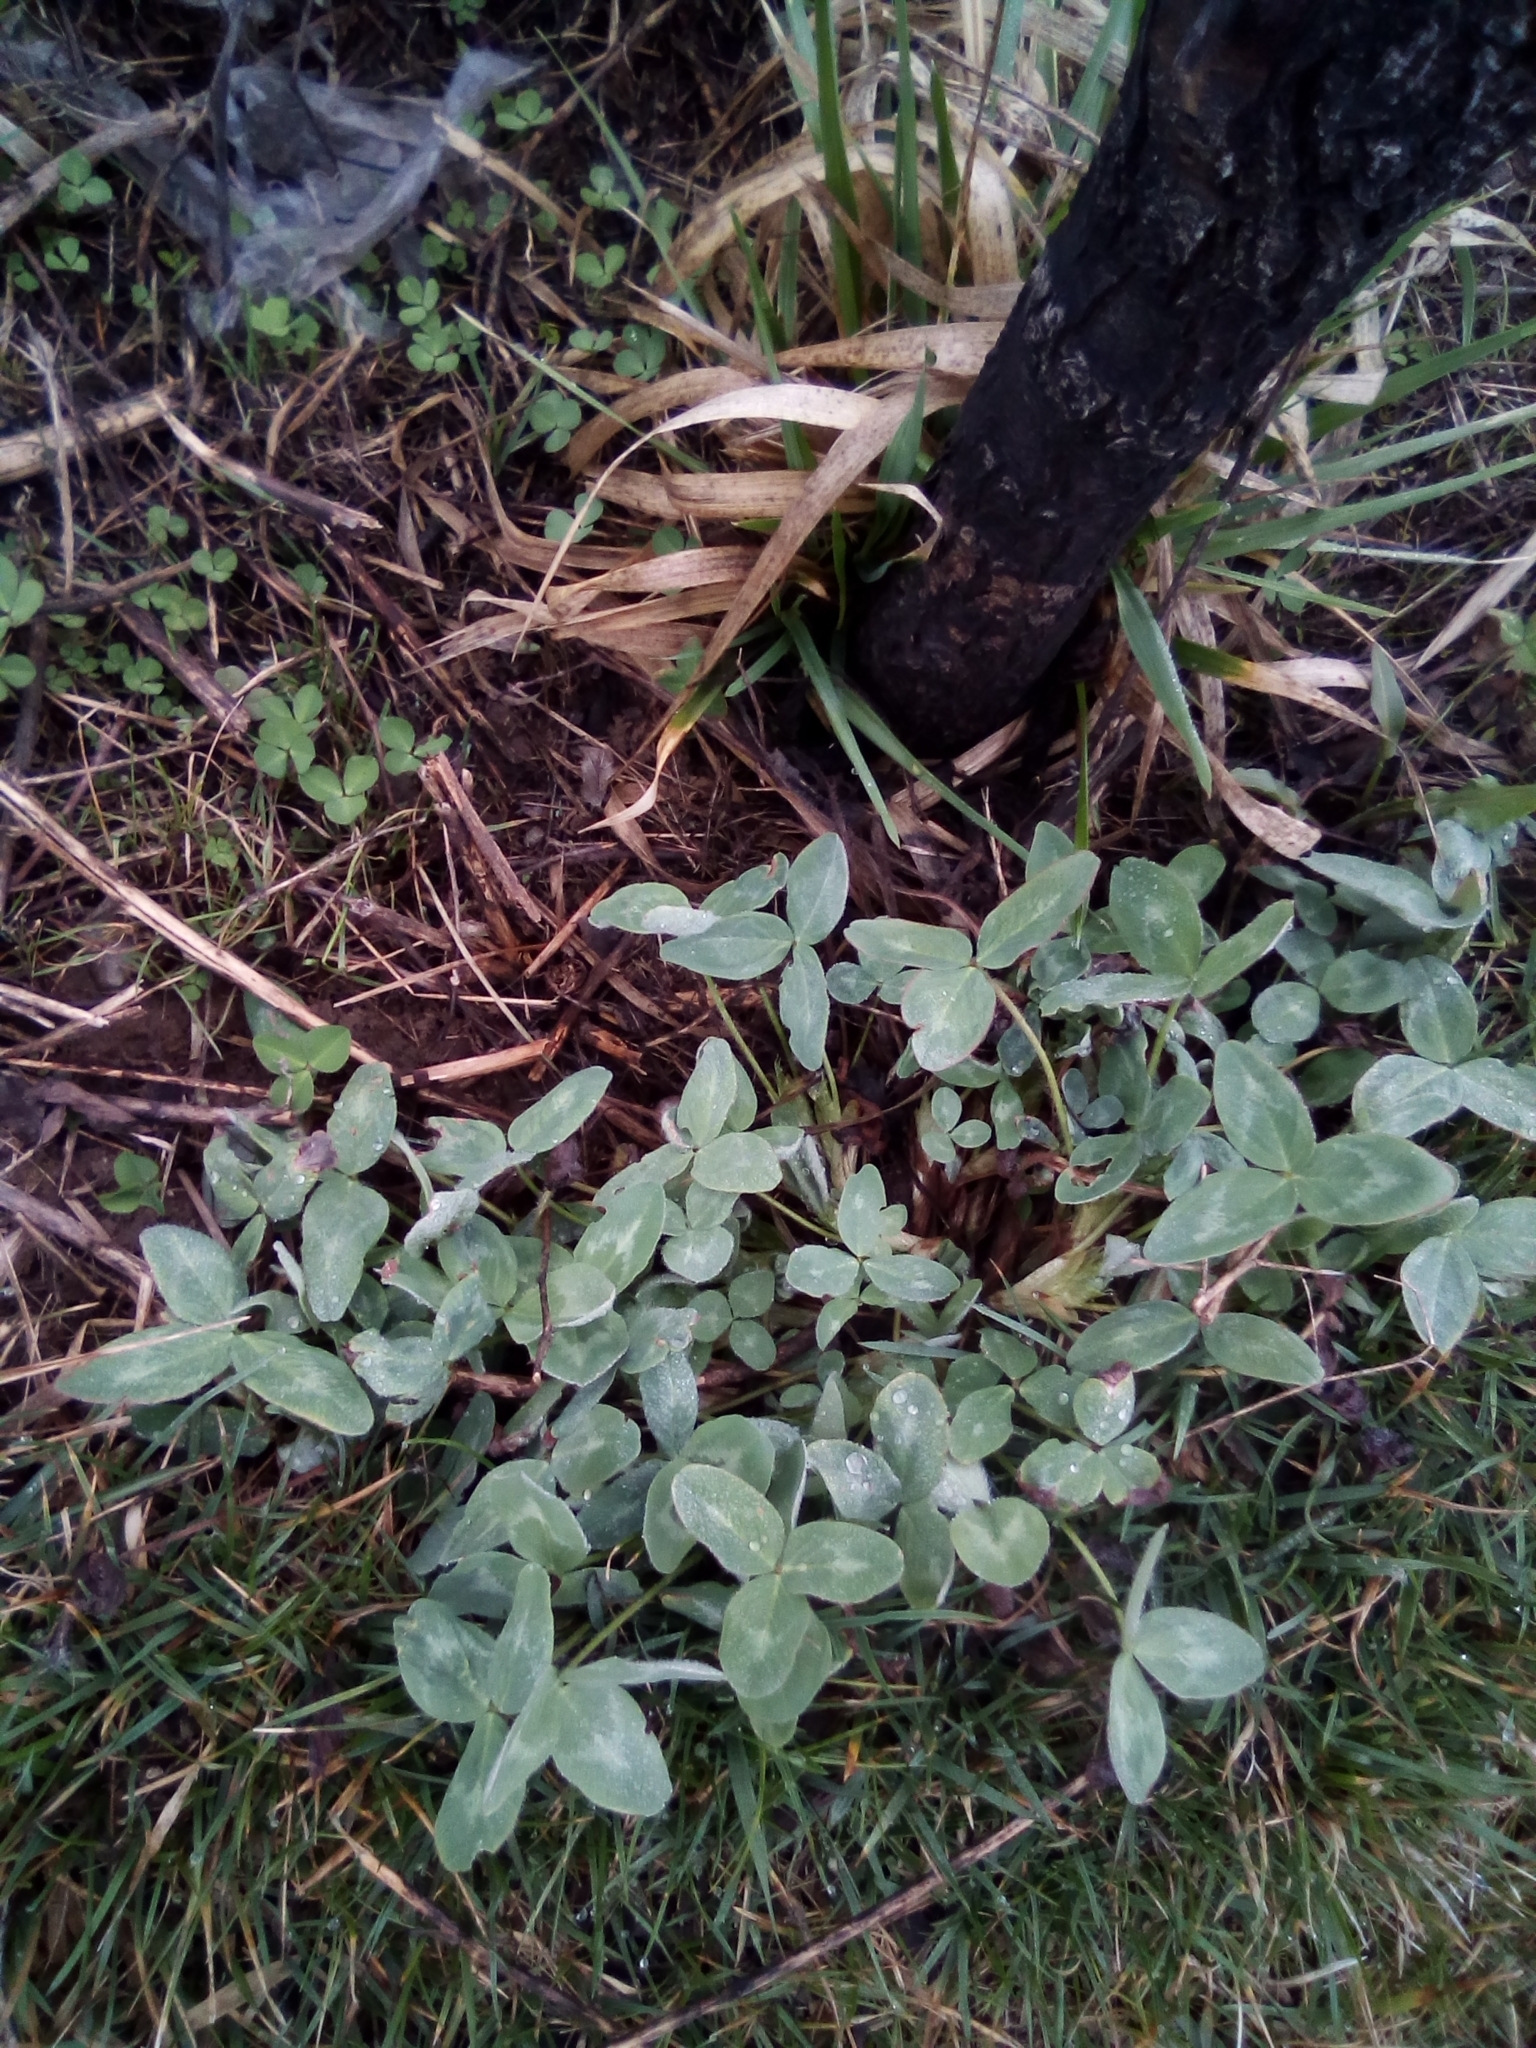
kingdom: Plantae
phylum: Tracheophyta
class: Magnoliopsida
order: Fabales
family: Fabaceae
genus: Trifolium
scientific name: Trifolium pratense
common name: Red clover
